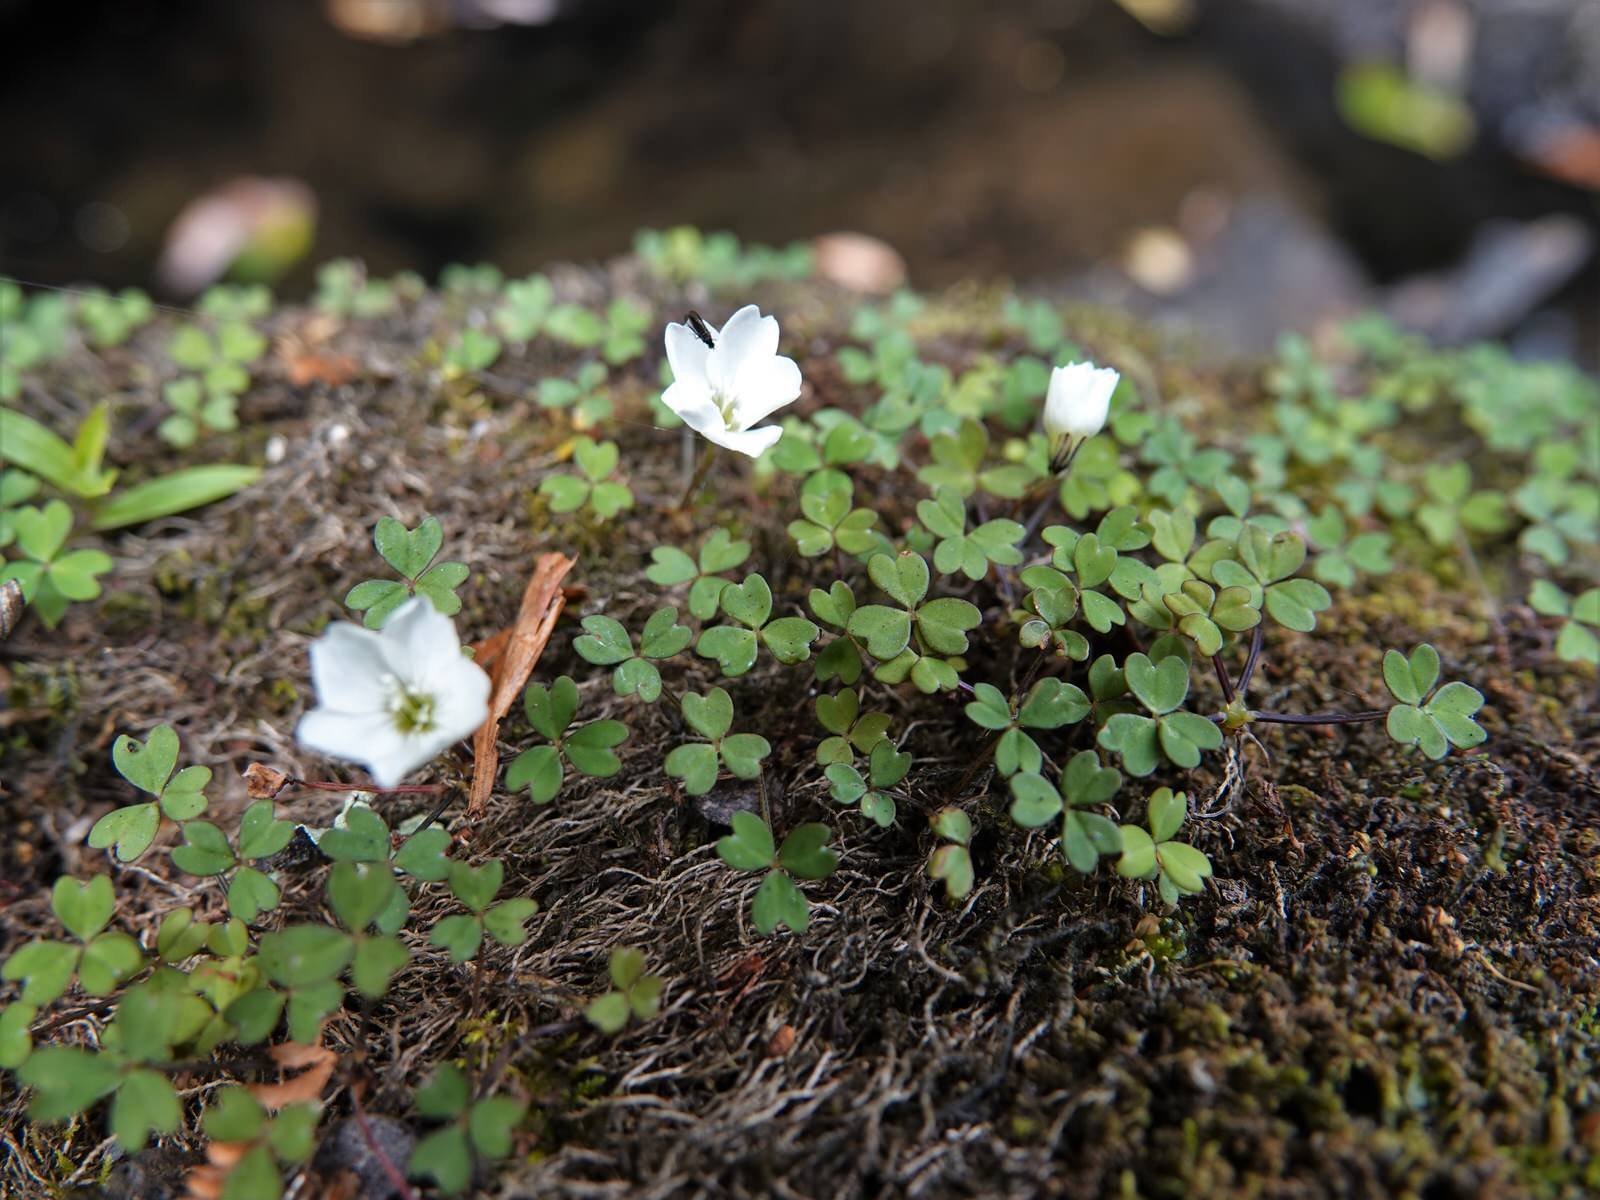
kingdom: Plantae
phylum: Tracheophyta
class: Magnoliopsida
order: Oxalidales
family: Oxalidaceae
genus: Oxalis
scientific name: Oxalis magellanica
